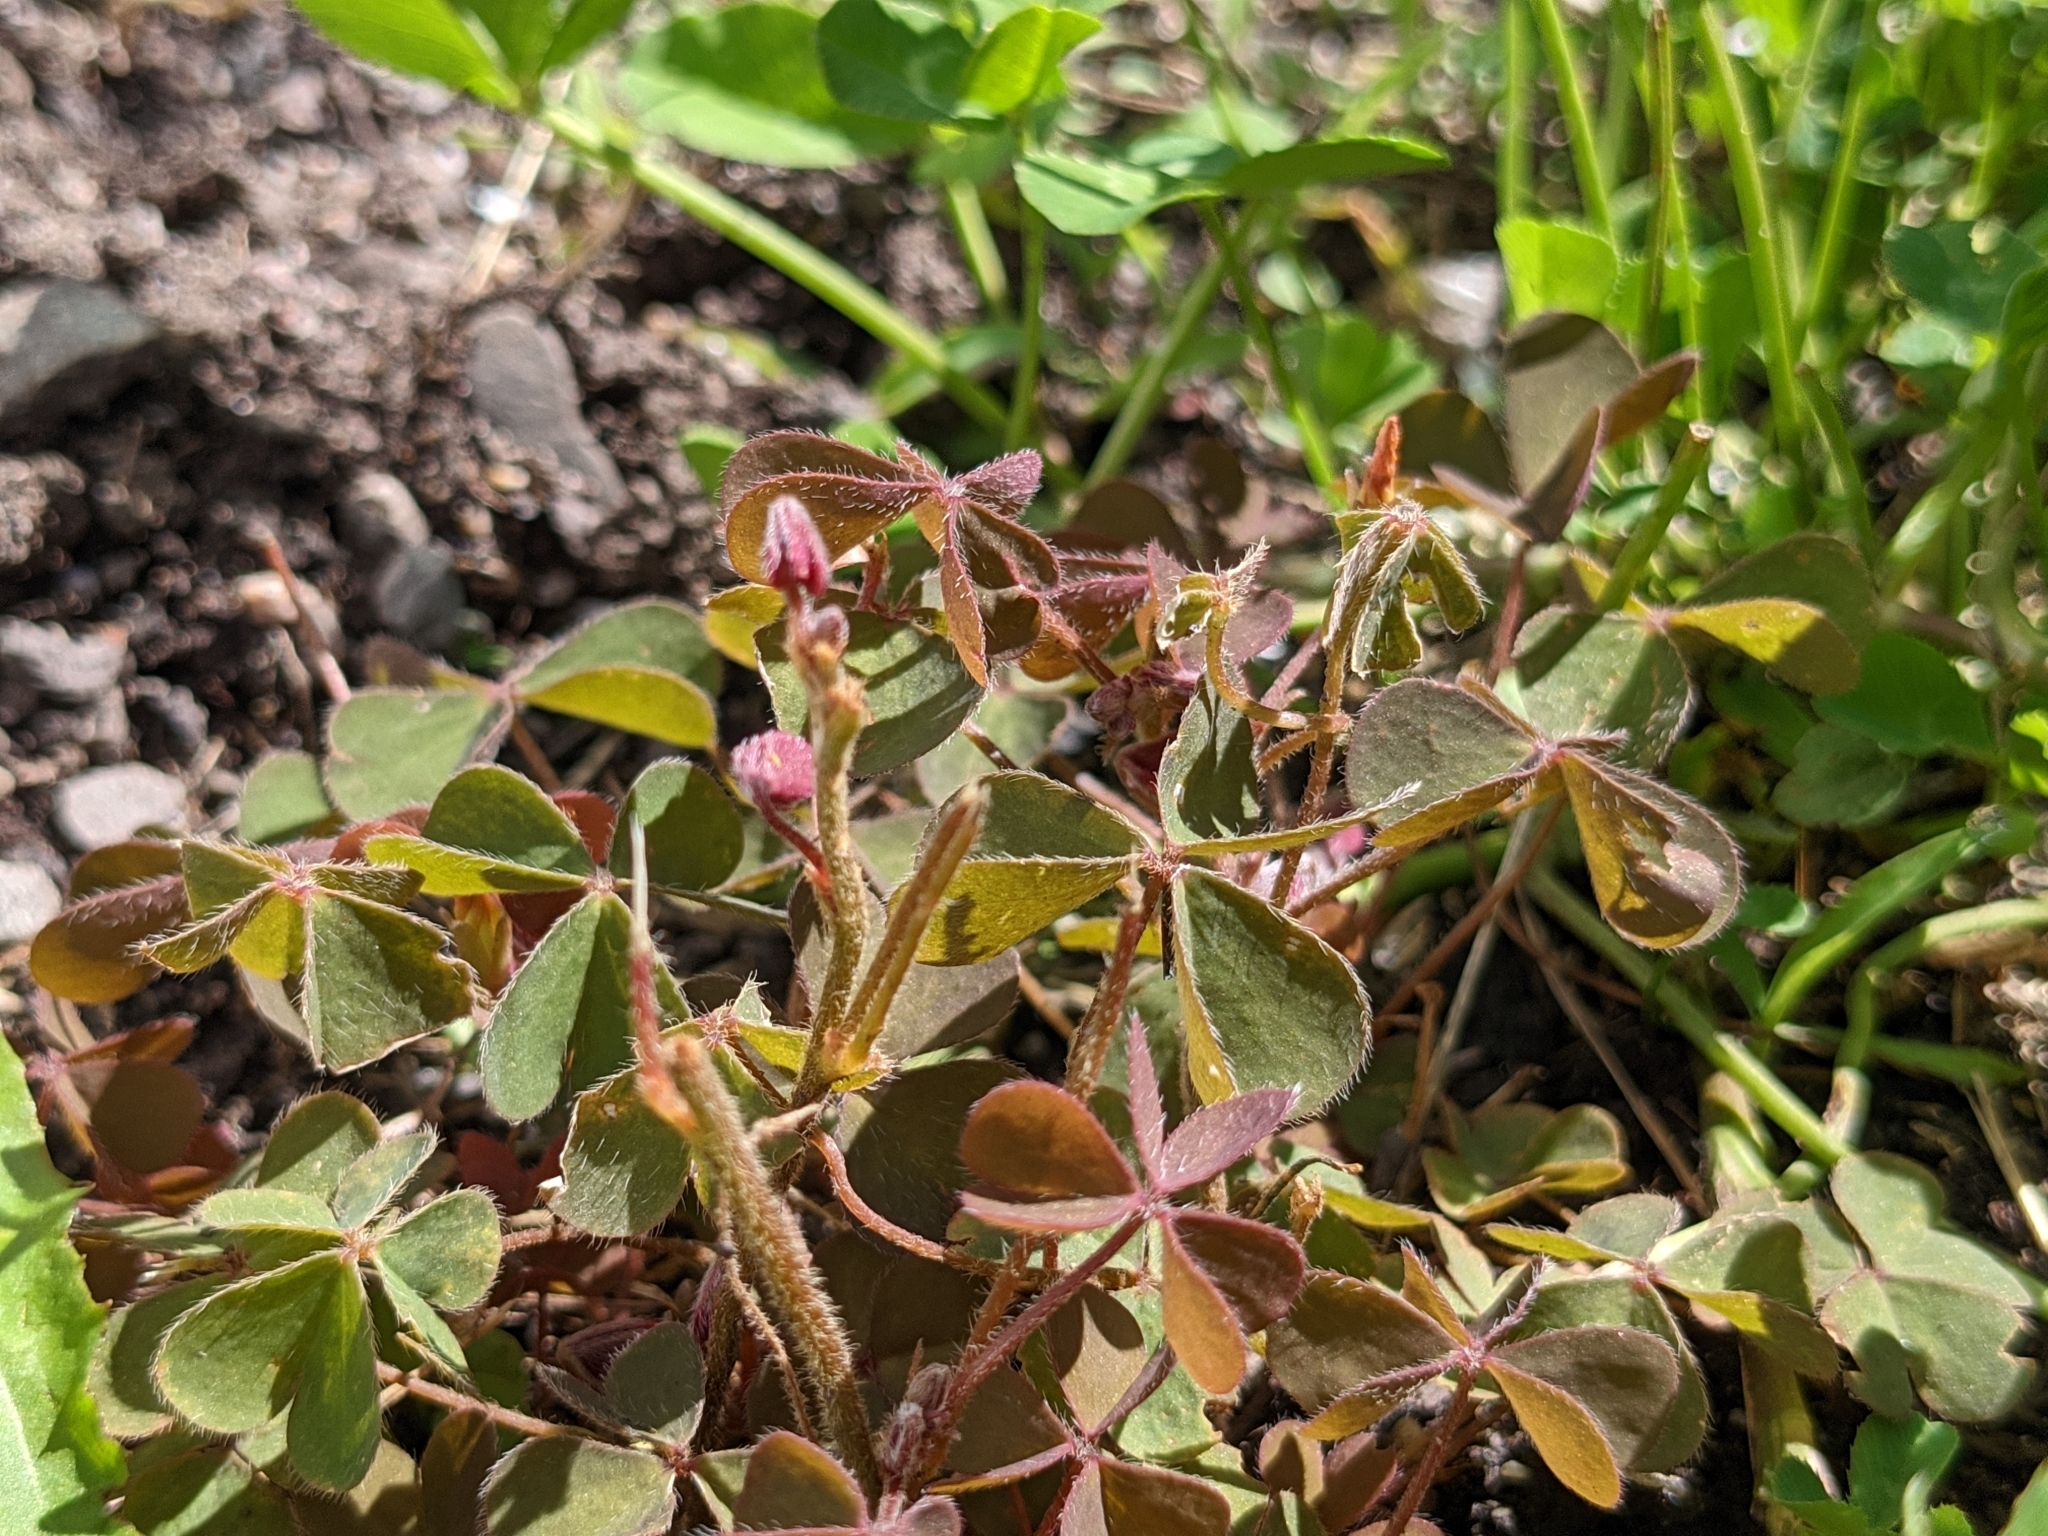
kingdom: Plantae
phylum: Tracheophyta
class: Magnoliopsida
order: Oxalidales
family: Oxalidaceae
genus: Oxalis
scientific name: Oxalis corniculata
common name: Procumbent yellow-sorrel
